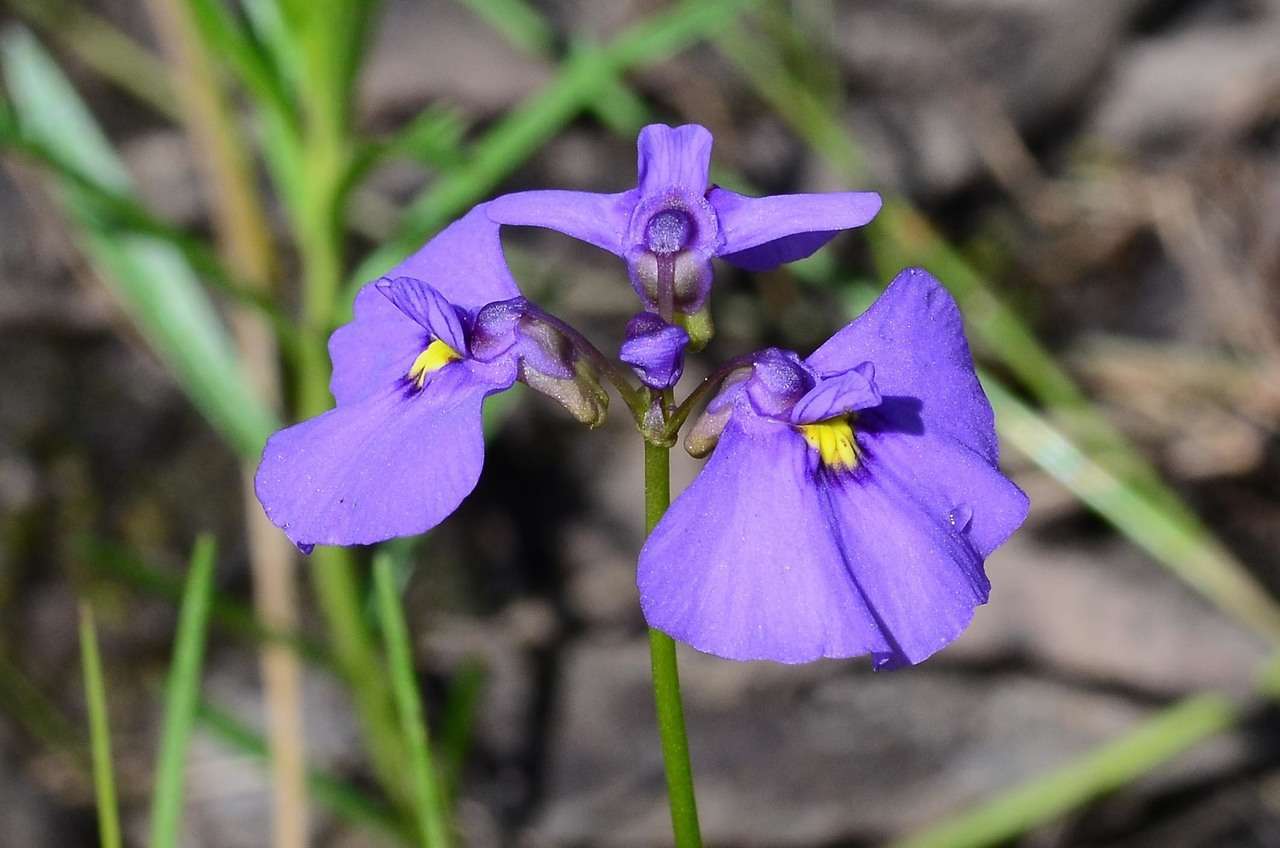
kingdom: Plantae
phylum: Tracheophyta
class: Magnoliopsida
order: Lamiales
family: Lentibulariaceae
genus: Utricularia
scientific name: Utricularia beaugleholei
